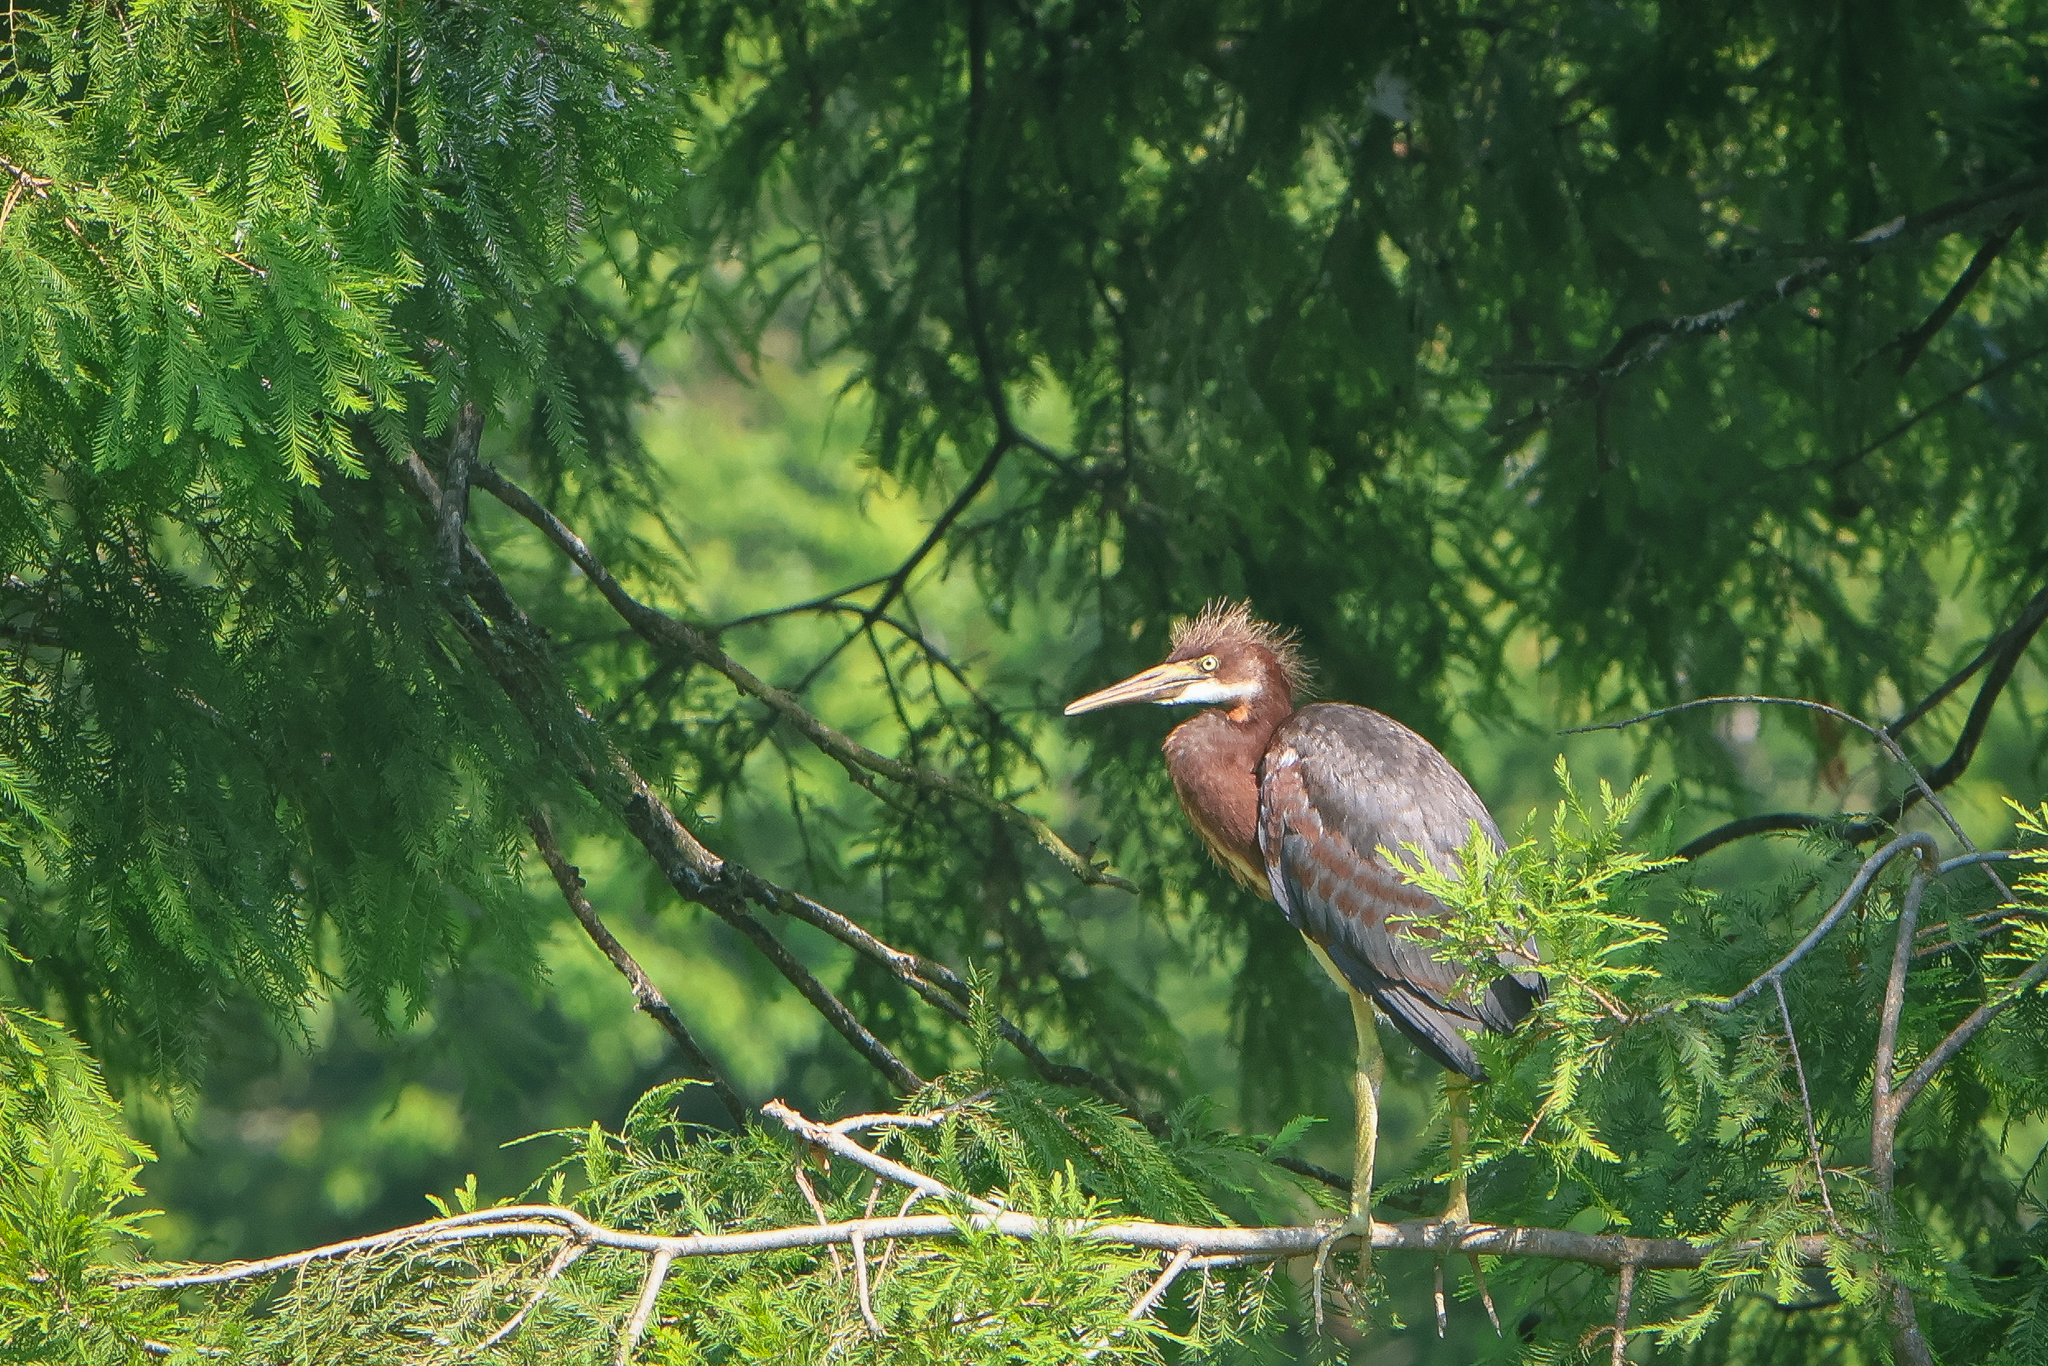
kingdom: Animalia
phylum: Chordata
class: Aves
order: Pelecaniformes
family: Ardeidae
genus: Egretta
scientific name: Egretta tricolor
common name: Tricolored heron
